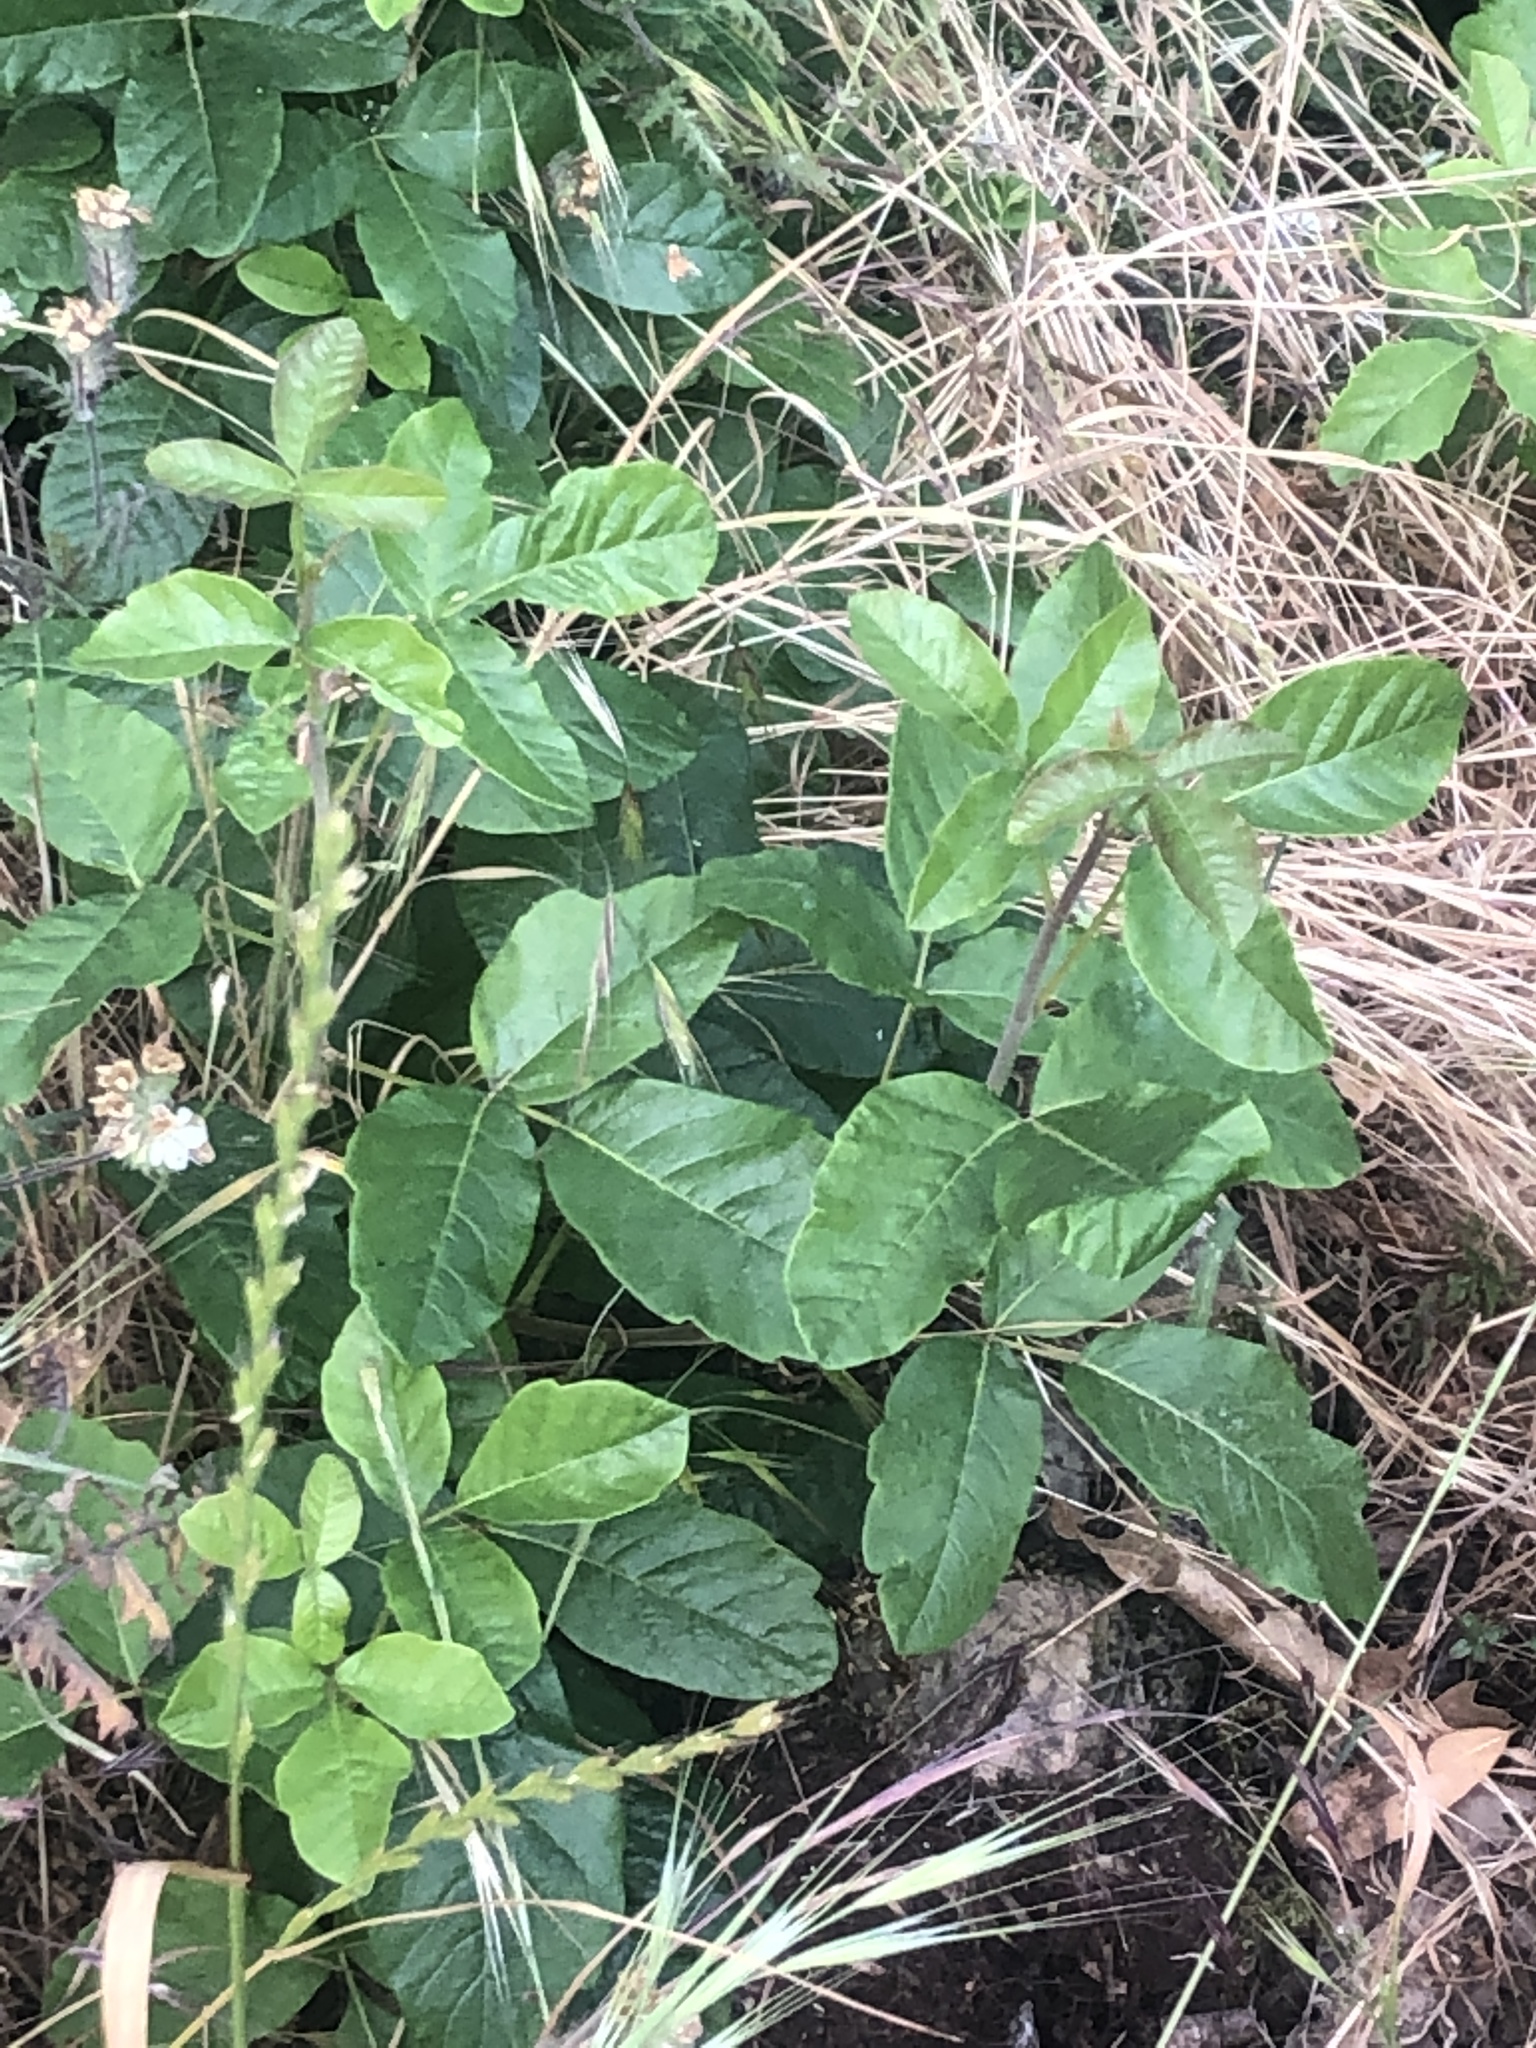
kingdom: Plantae
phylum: Tracheophyta
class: Magnoliopsida
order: Sapindales
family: Anacardiaceae
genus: Toxicodendron
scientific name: Toxicodendron diversilobum
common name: Pacific poison-oak
